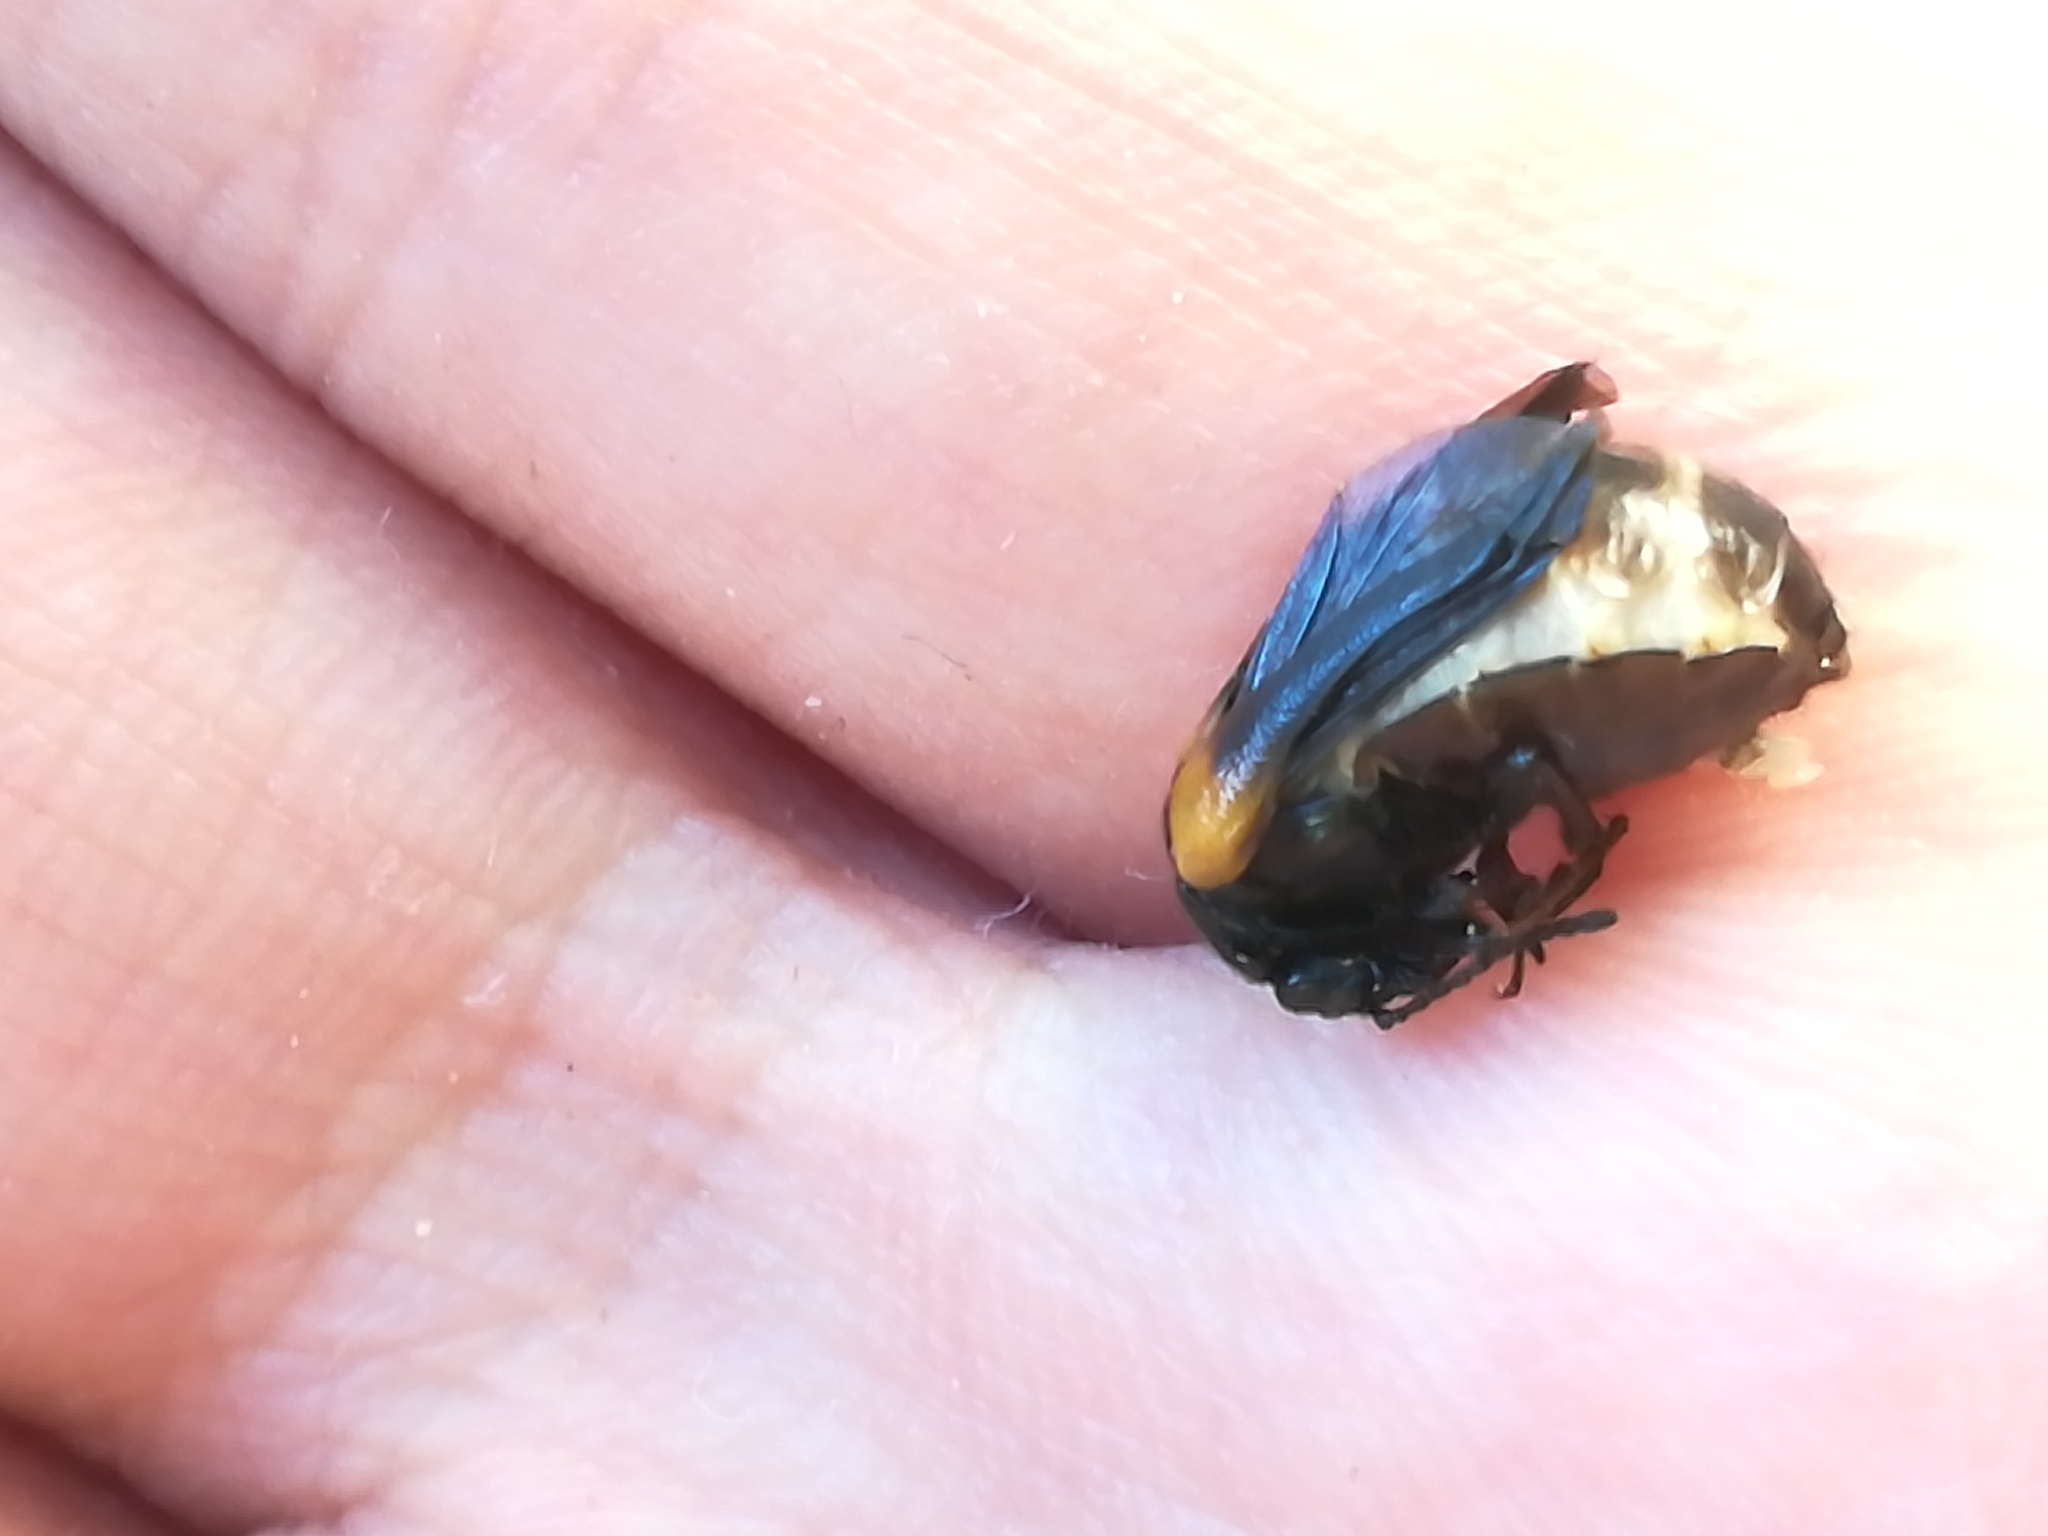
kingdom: Animalia
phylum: Arthropoda
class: Insecta
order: Coleoptera
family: Meloidae
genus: Sitaris
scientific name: Sitaris muralis
